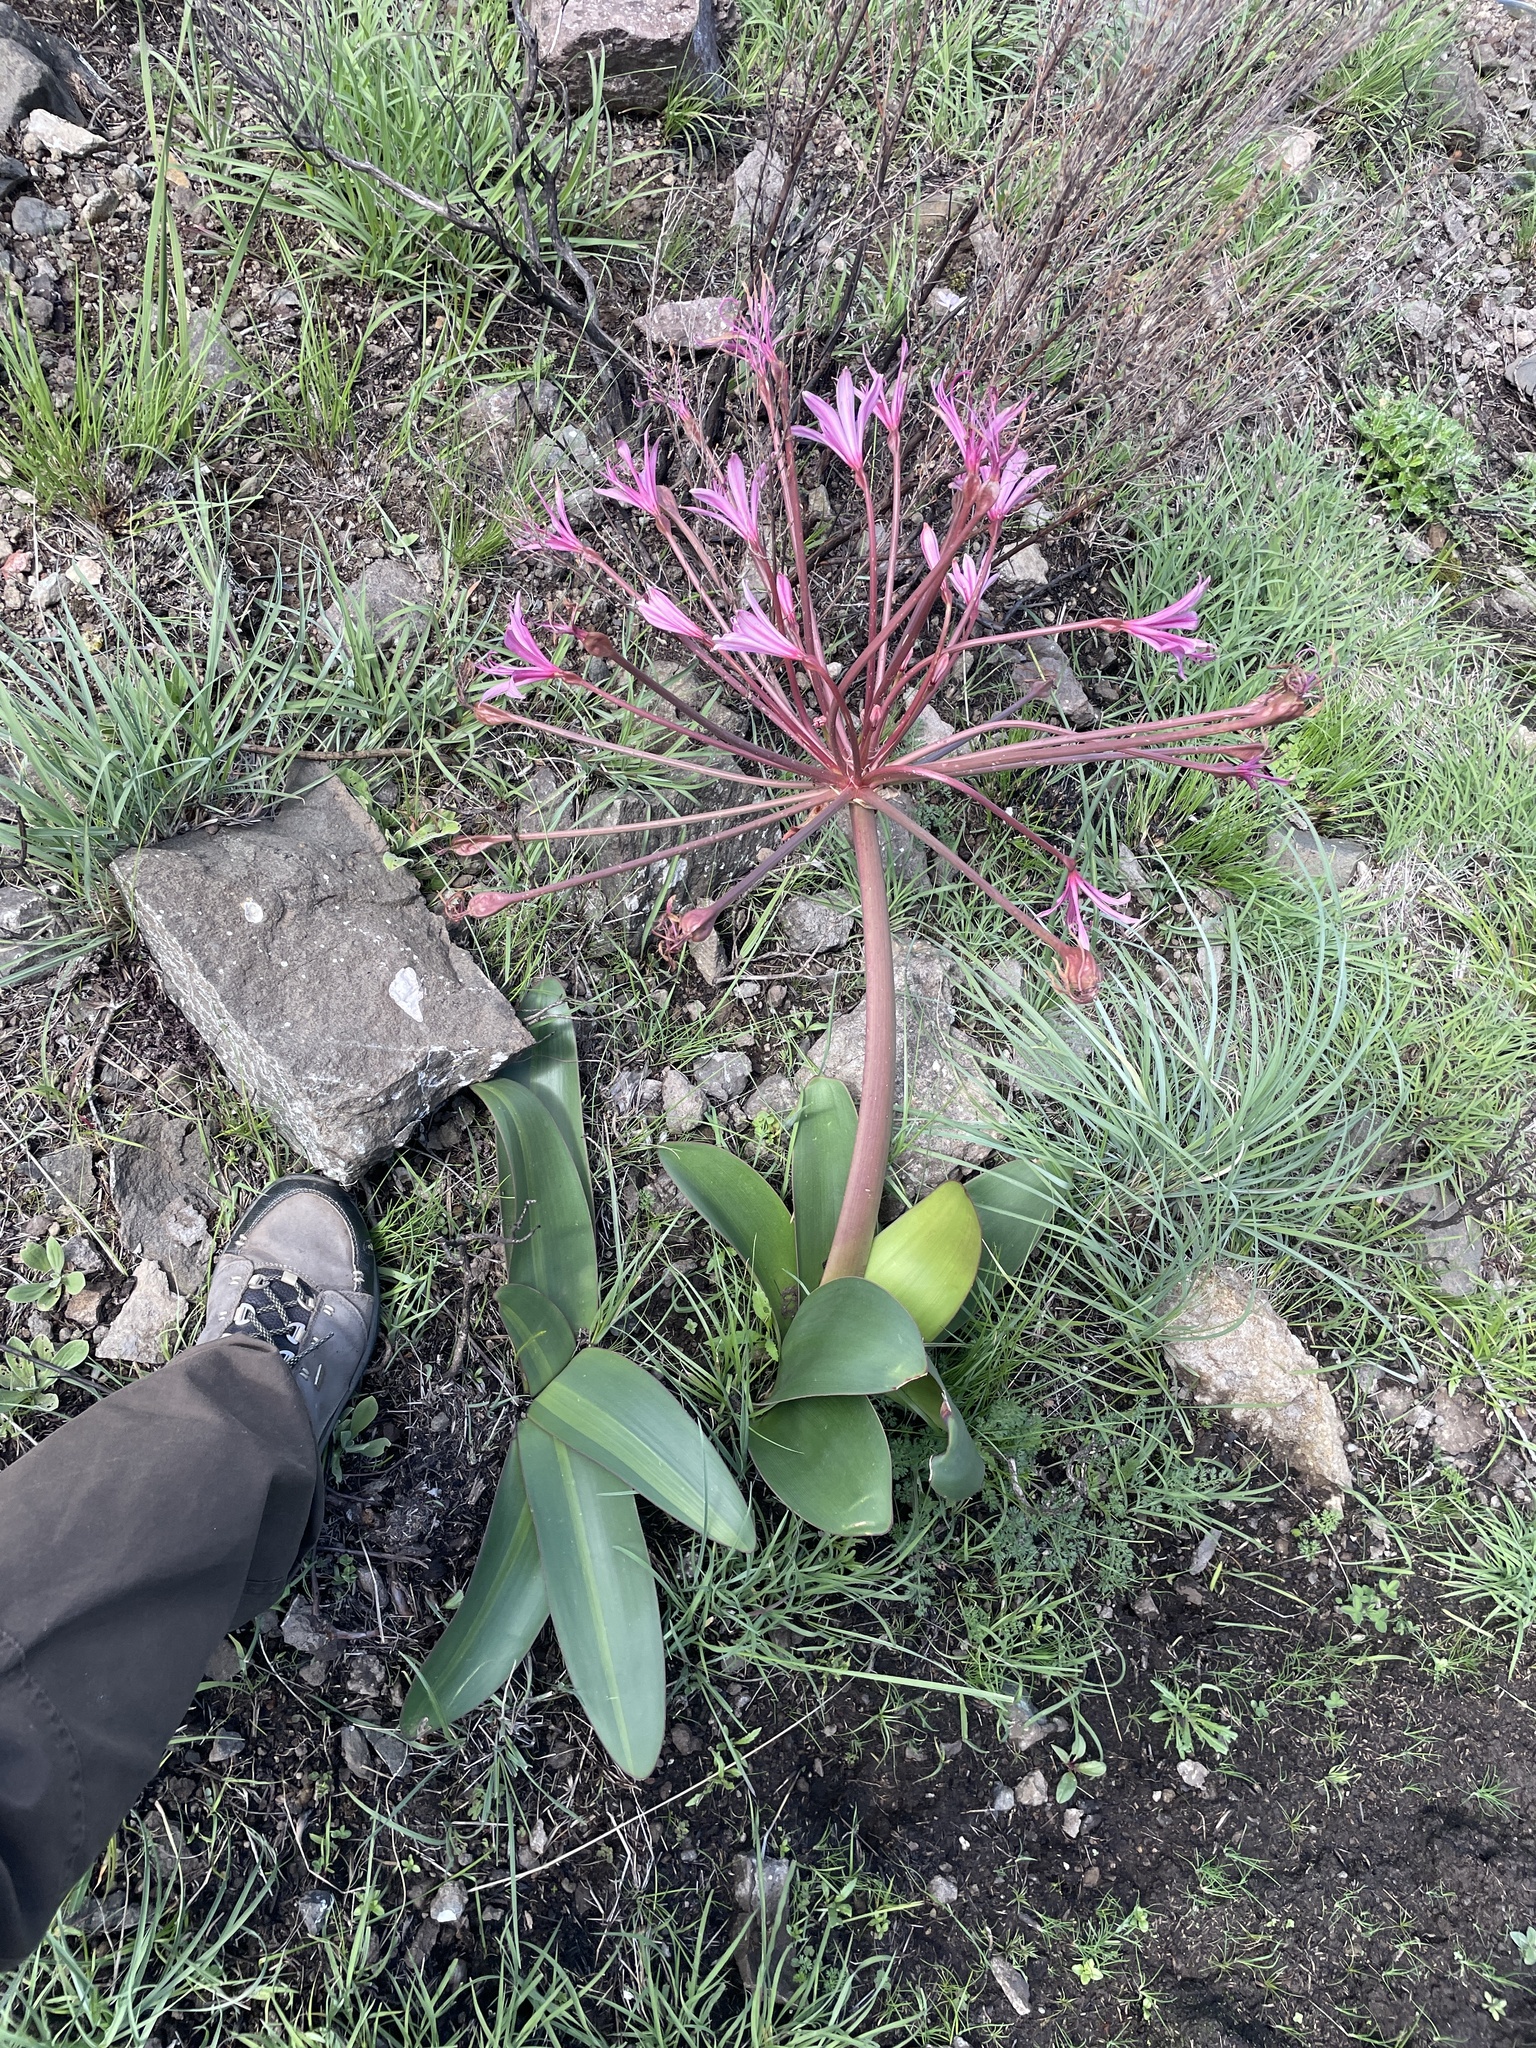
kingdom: Plantae
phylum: Tracheophyta
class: Liliopsida
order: Asparagales
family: Amaryllidaceae
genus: Brunsvigia
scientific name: Brunsvigia radulosa
